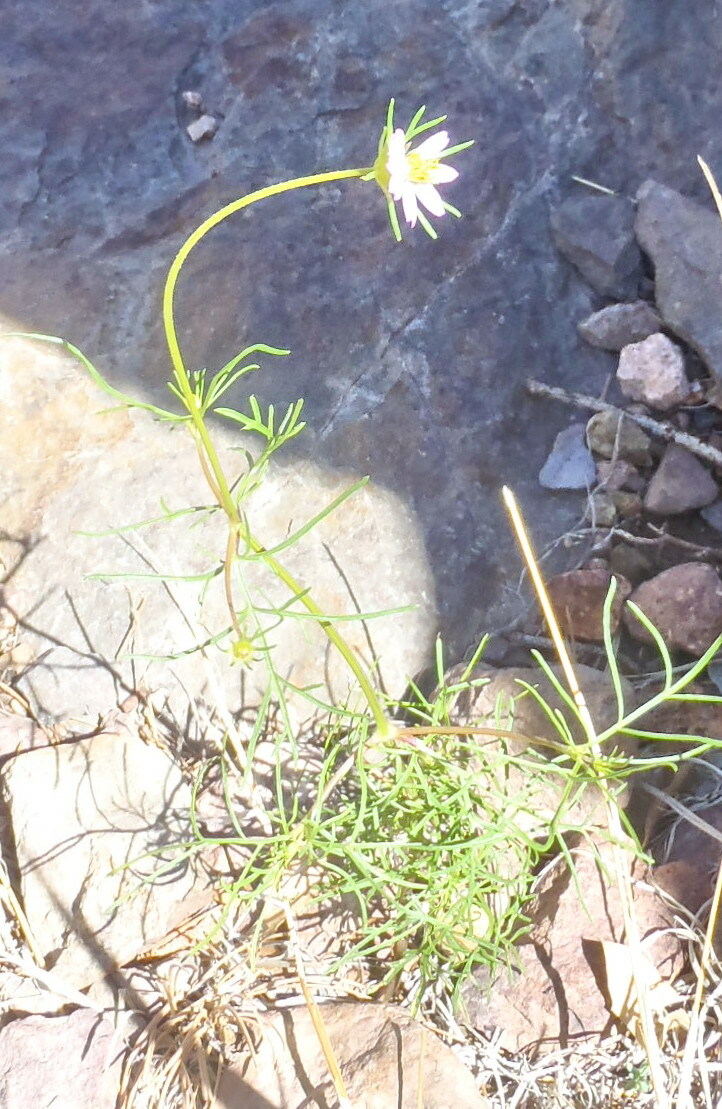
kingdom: Plantae
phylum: Tracheophyta
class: Magnoliopsida
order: Asterales
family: Asteraceae
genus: Cosmos
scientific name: Cosmos parviflorus
